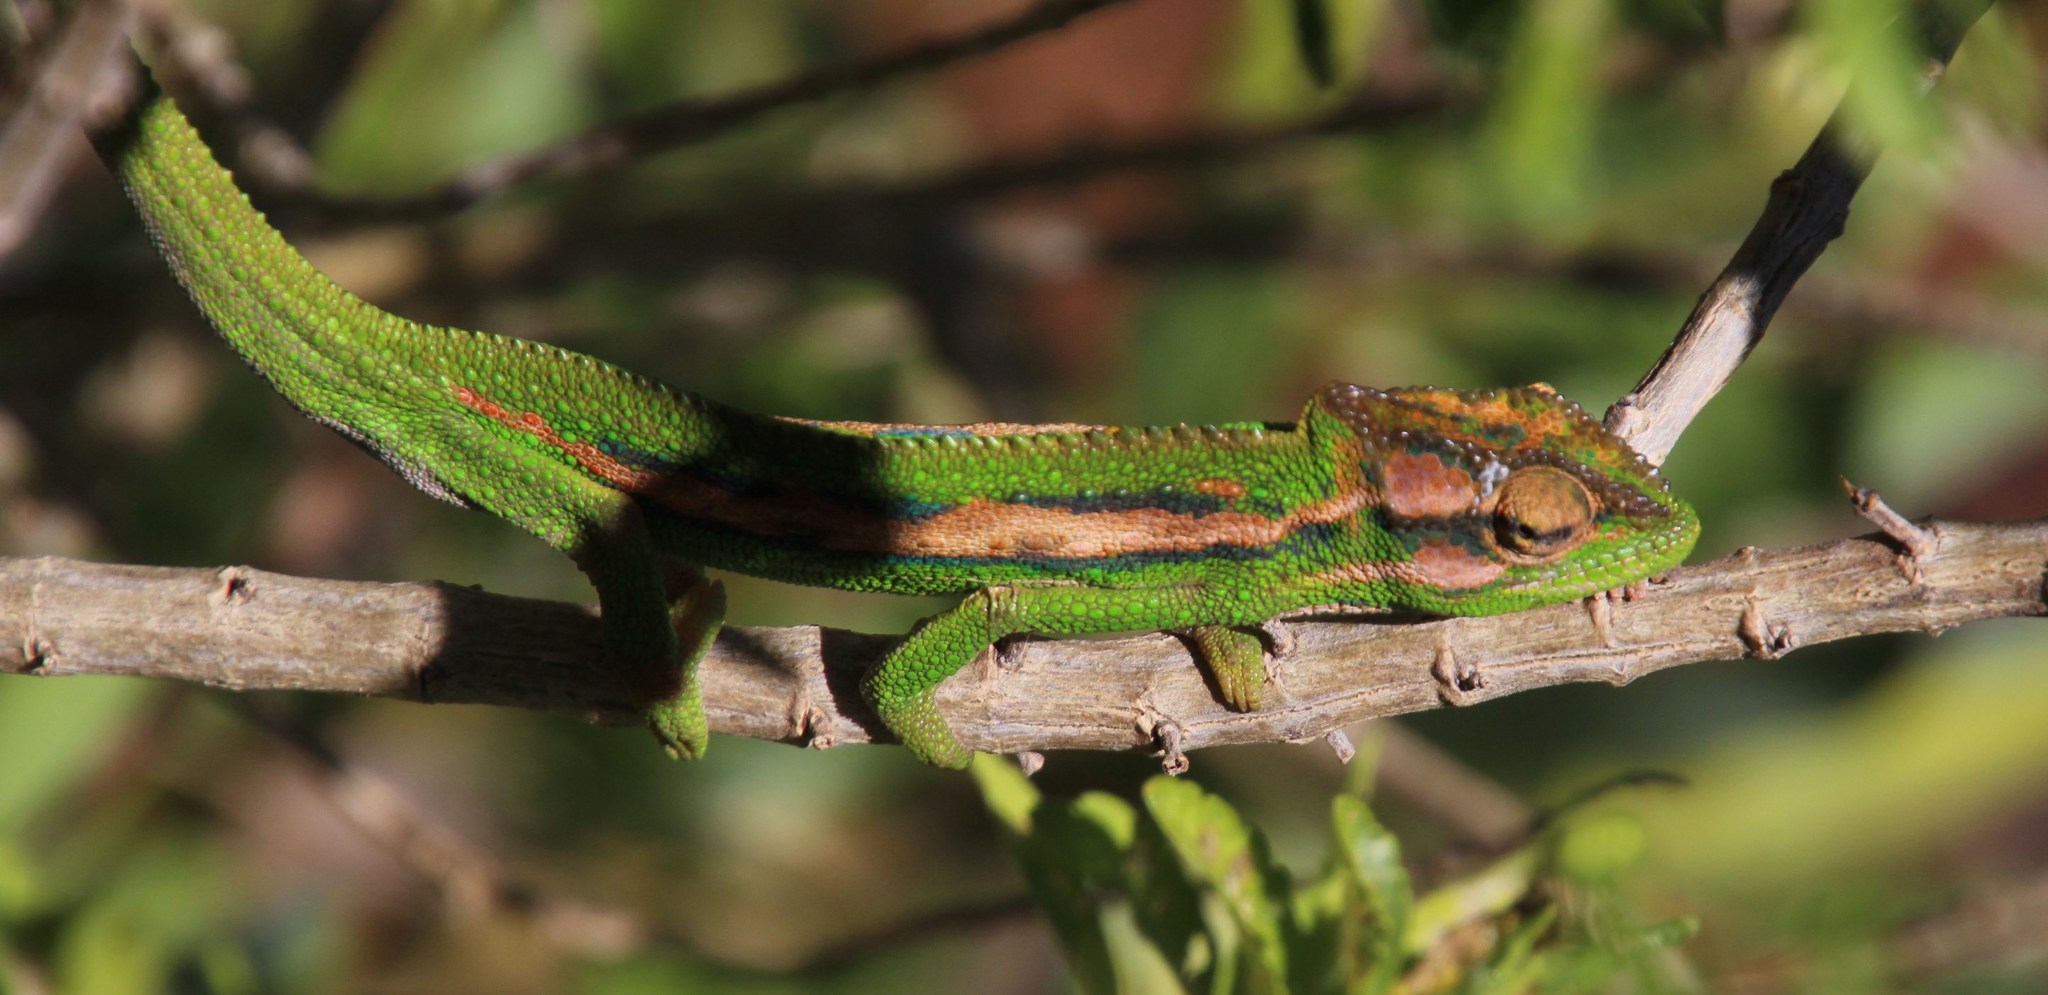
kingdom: Animalia
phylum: Chordata
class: Squamata
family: Chamaeleonidae
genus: Bradypodion
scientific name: Bradypodion pumilum
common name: Cape dwarf chameleon
